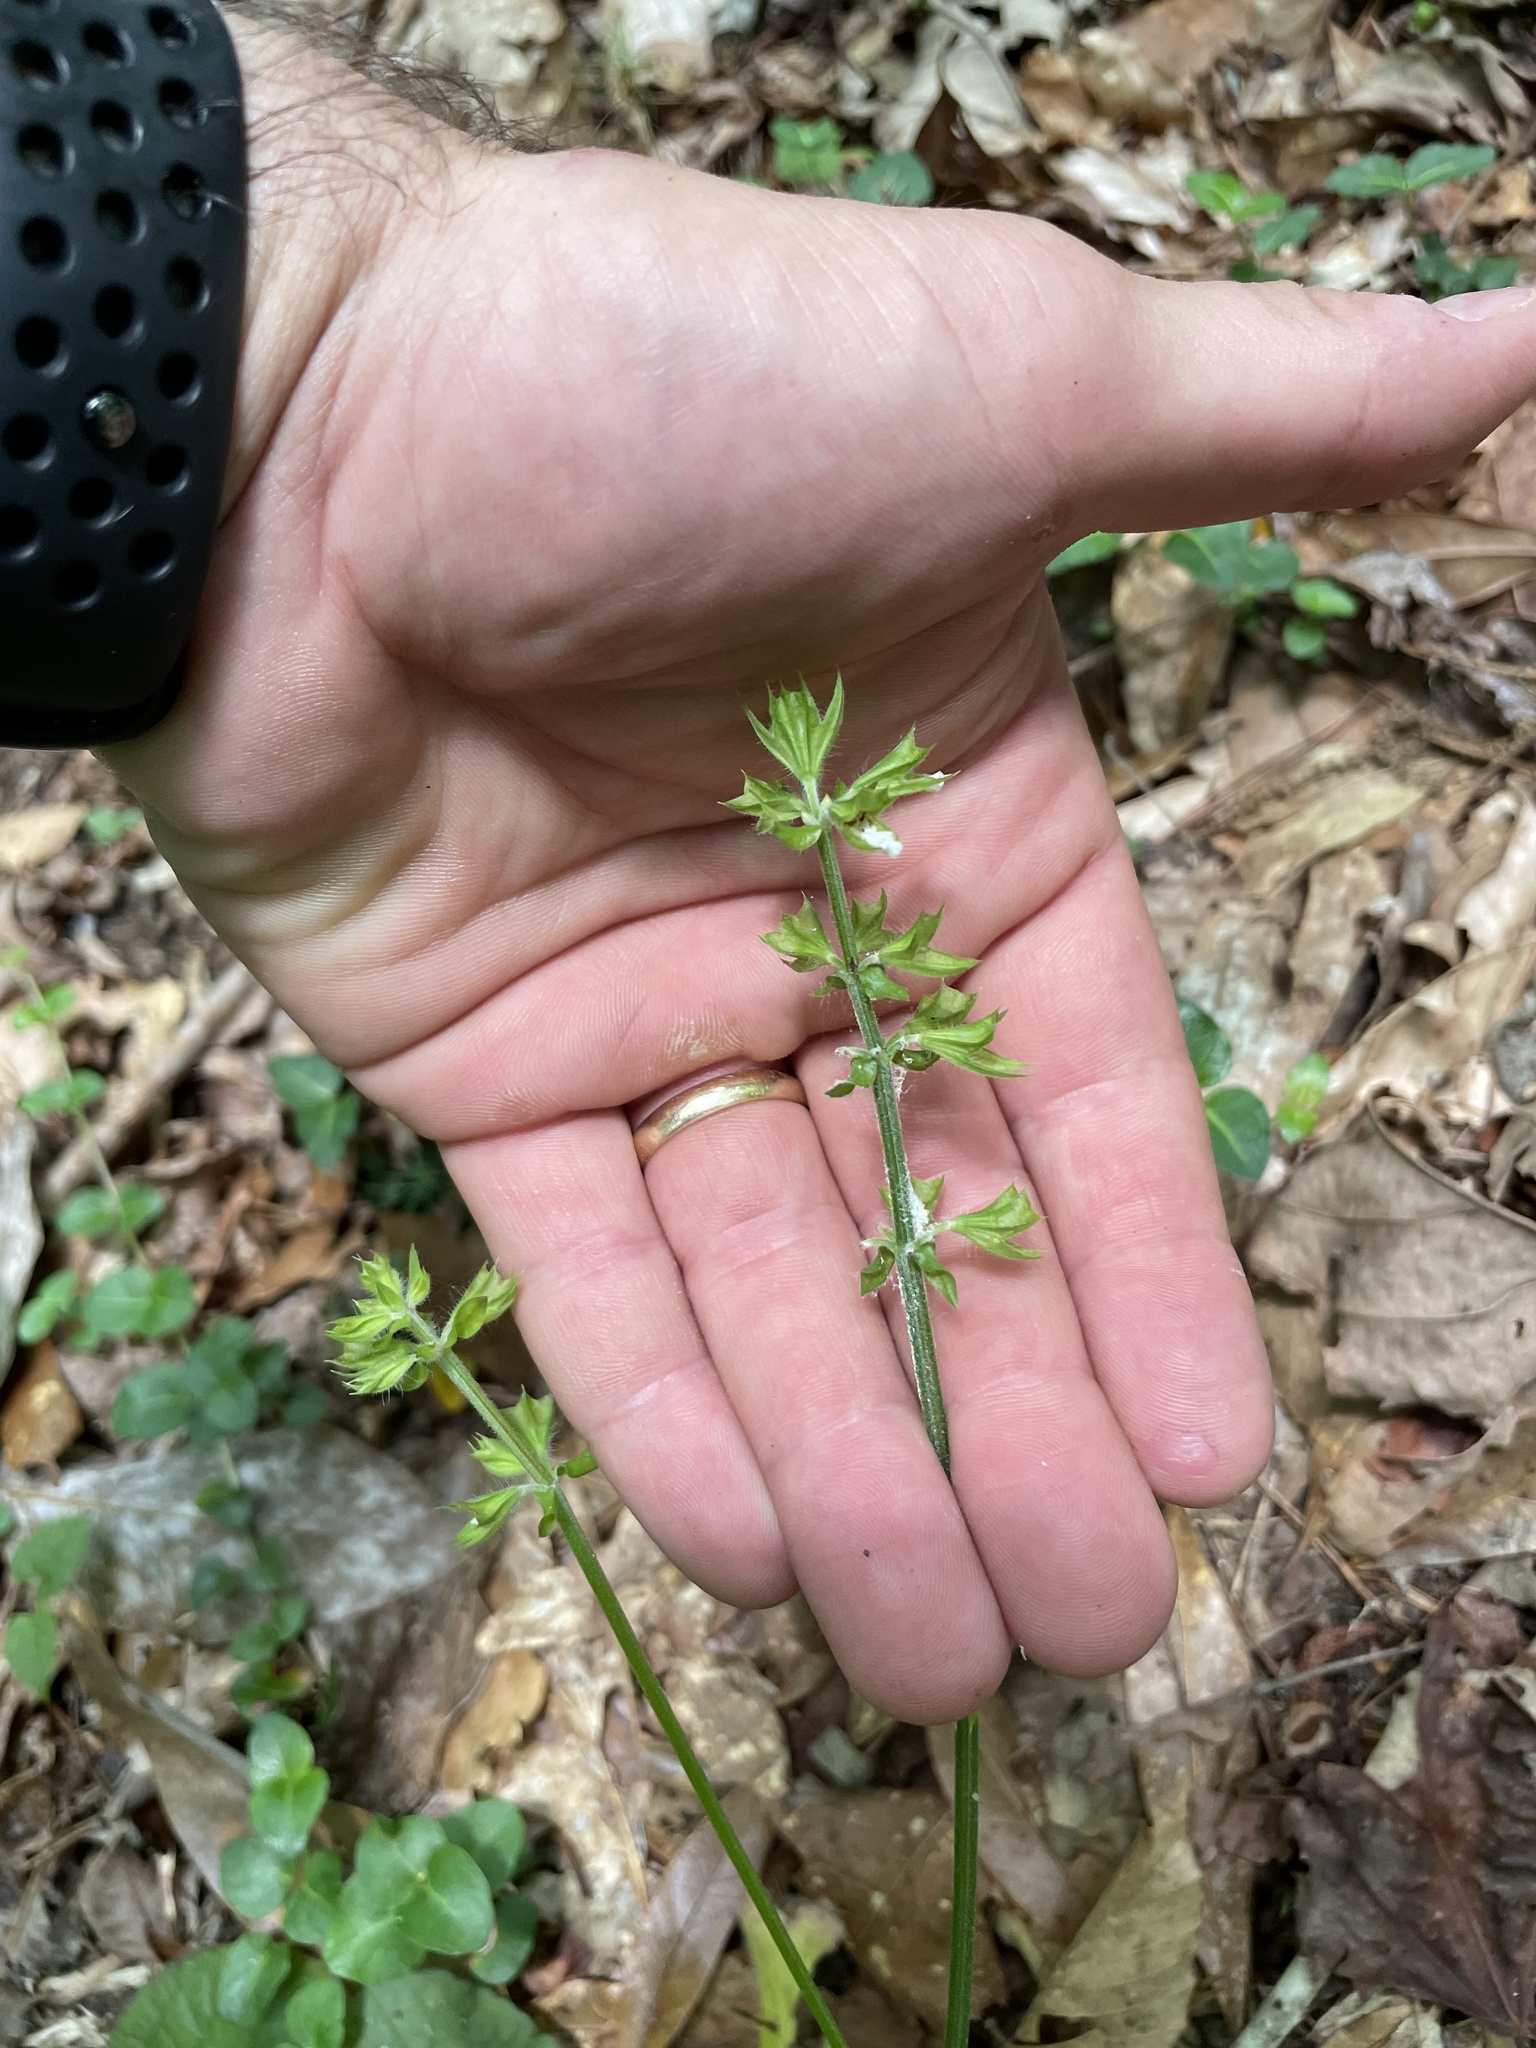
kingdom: Plantae
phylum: Tracheophyta
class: Magnoliopsida
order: Lamiales
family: Lamiaceae
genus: Salvia
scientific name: Salvia lyrata
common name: Cancerweed
